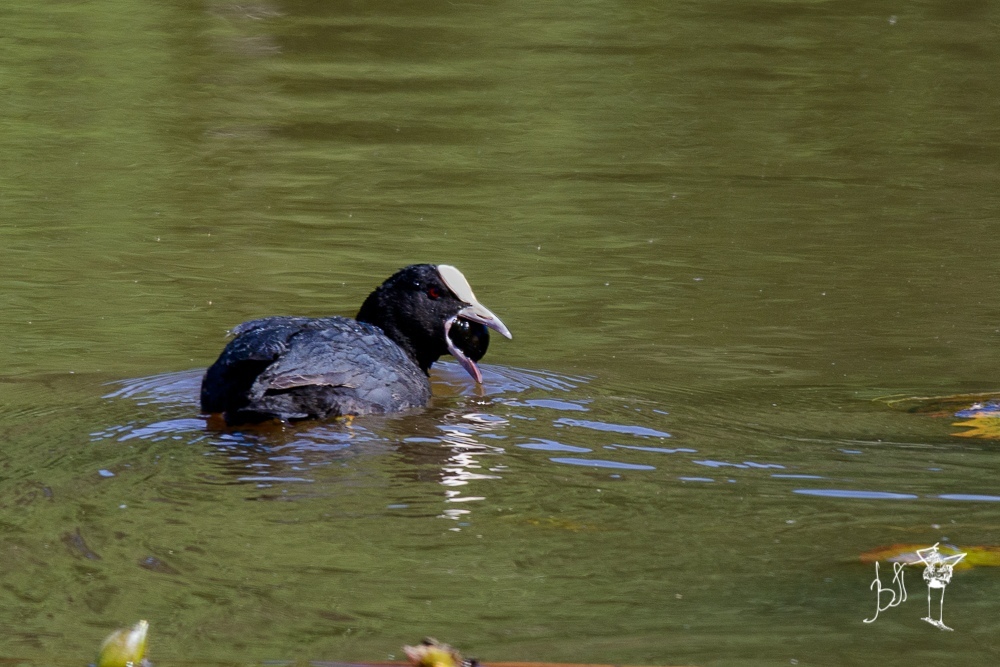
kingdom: Animalia
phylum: Chordata
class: Aves
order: Gruiformes
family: Rallidae
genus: Fulica
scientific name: Fulica atra
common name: Eurasian coot
